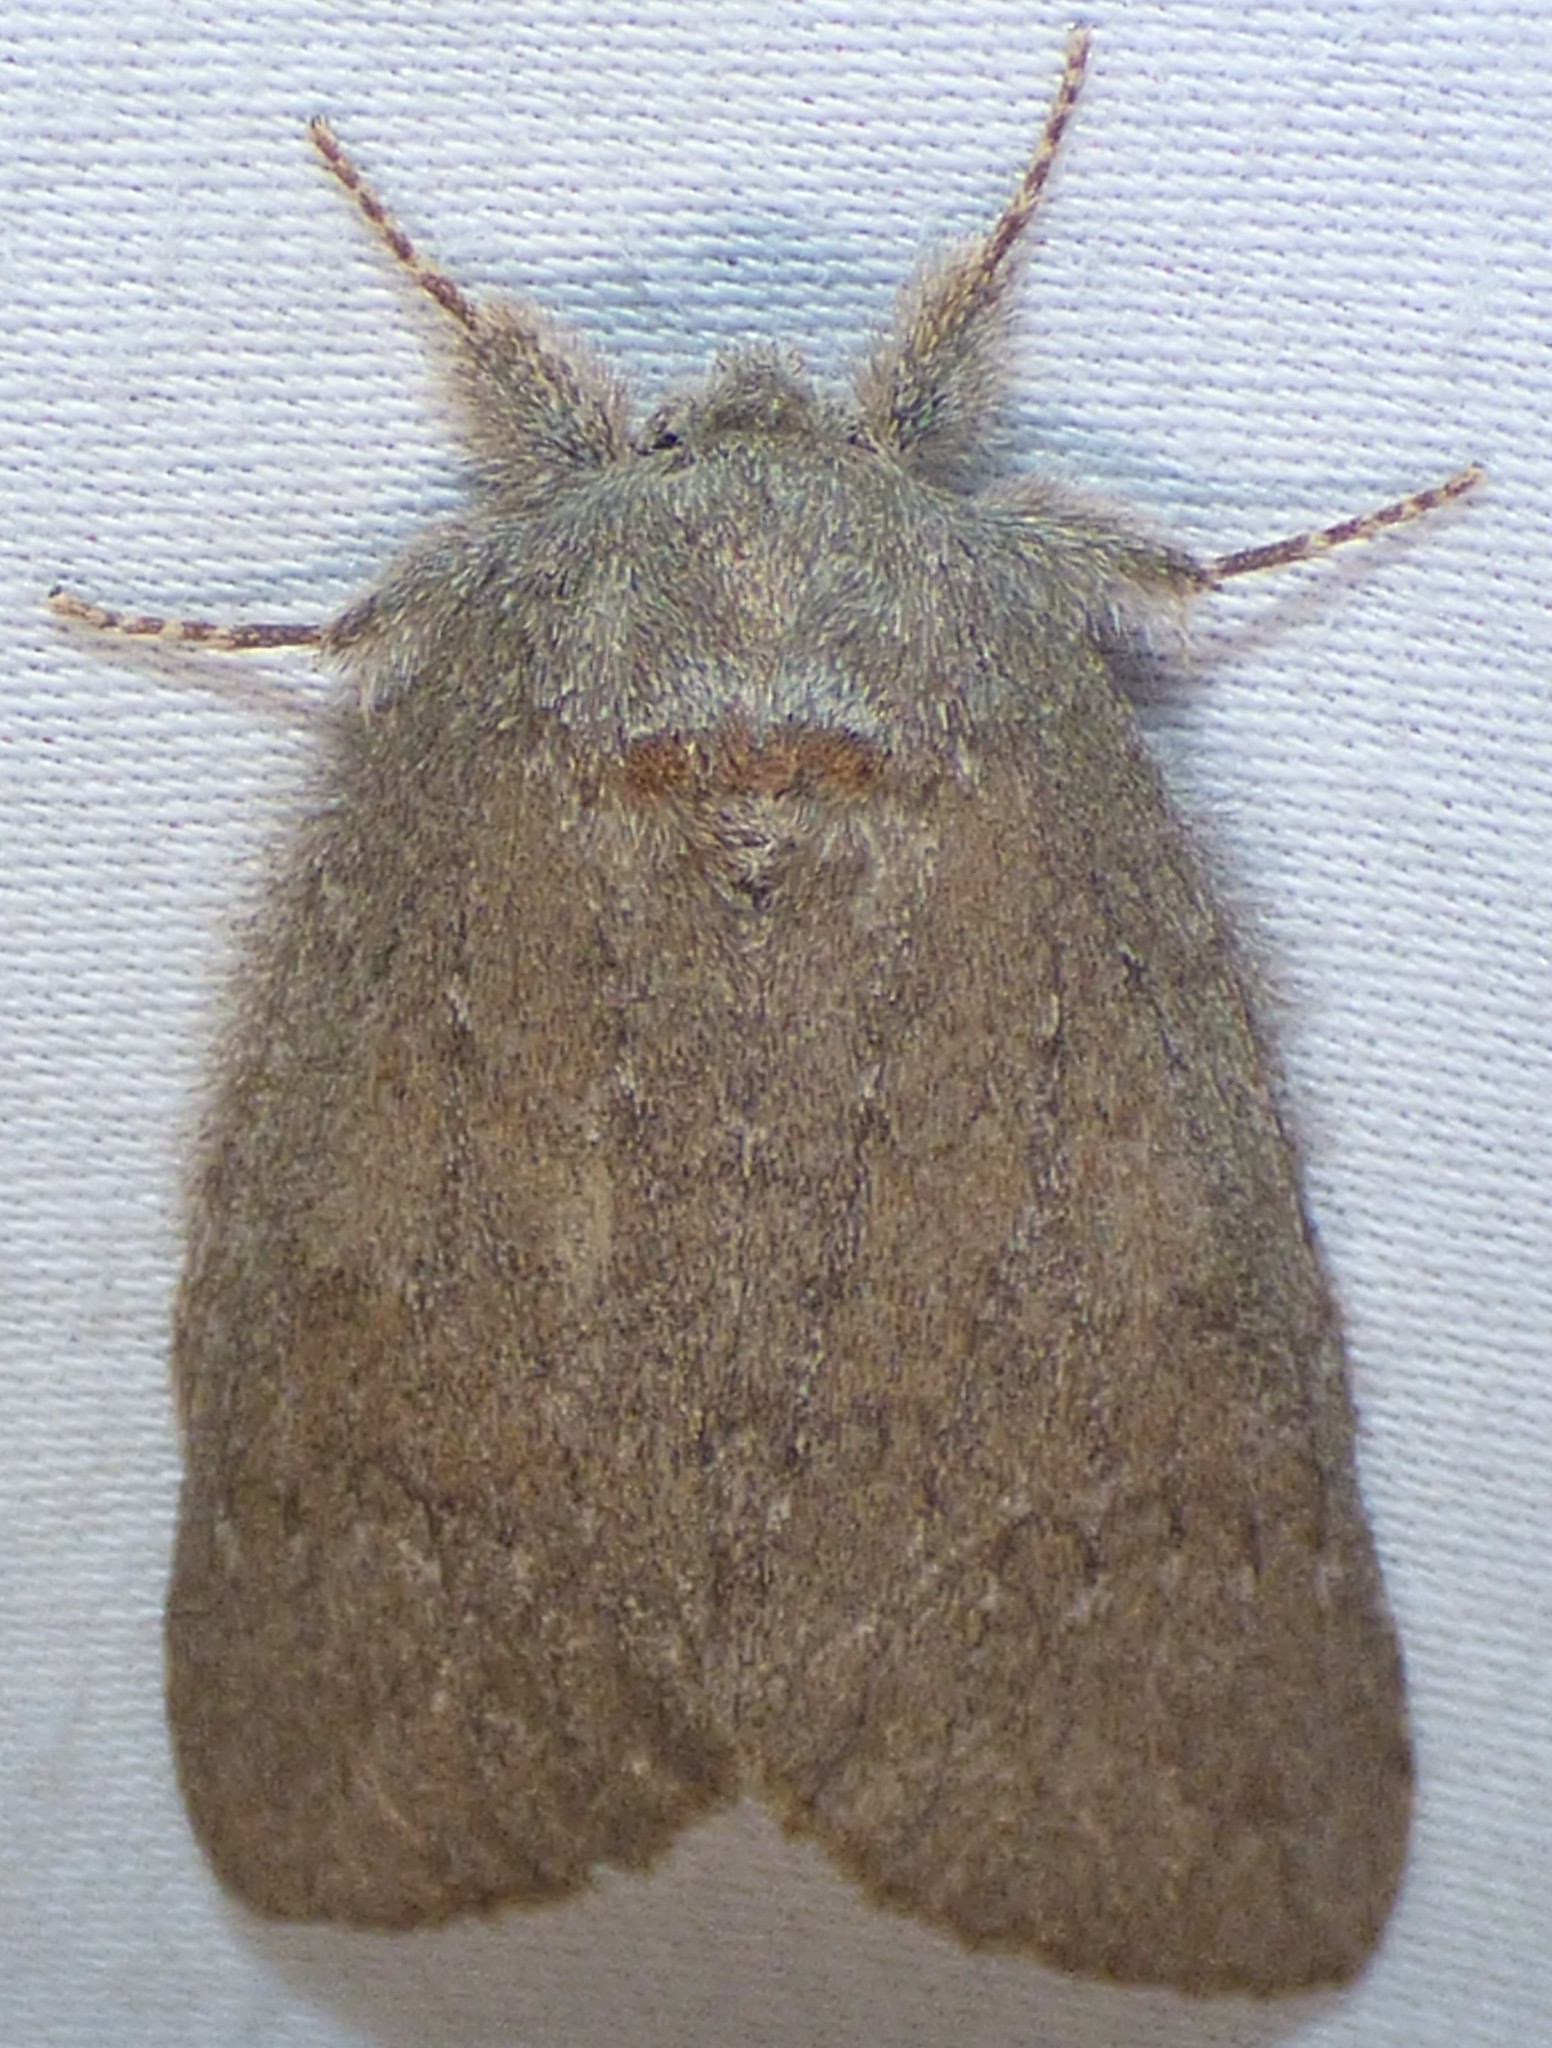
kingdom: Animalia
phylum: Arthropoda
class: Insecta
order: Lepidoptera
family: Notodontidae
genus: Misogada
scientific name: Misogada unicolor
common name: Drab prominent
